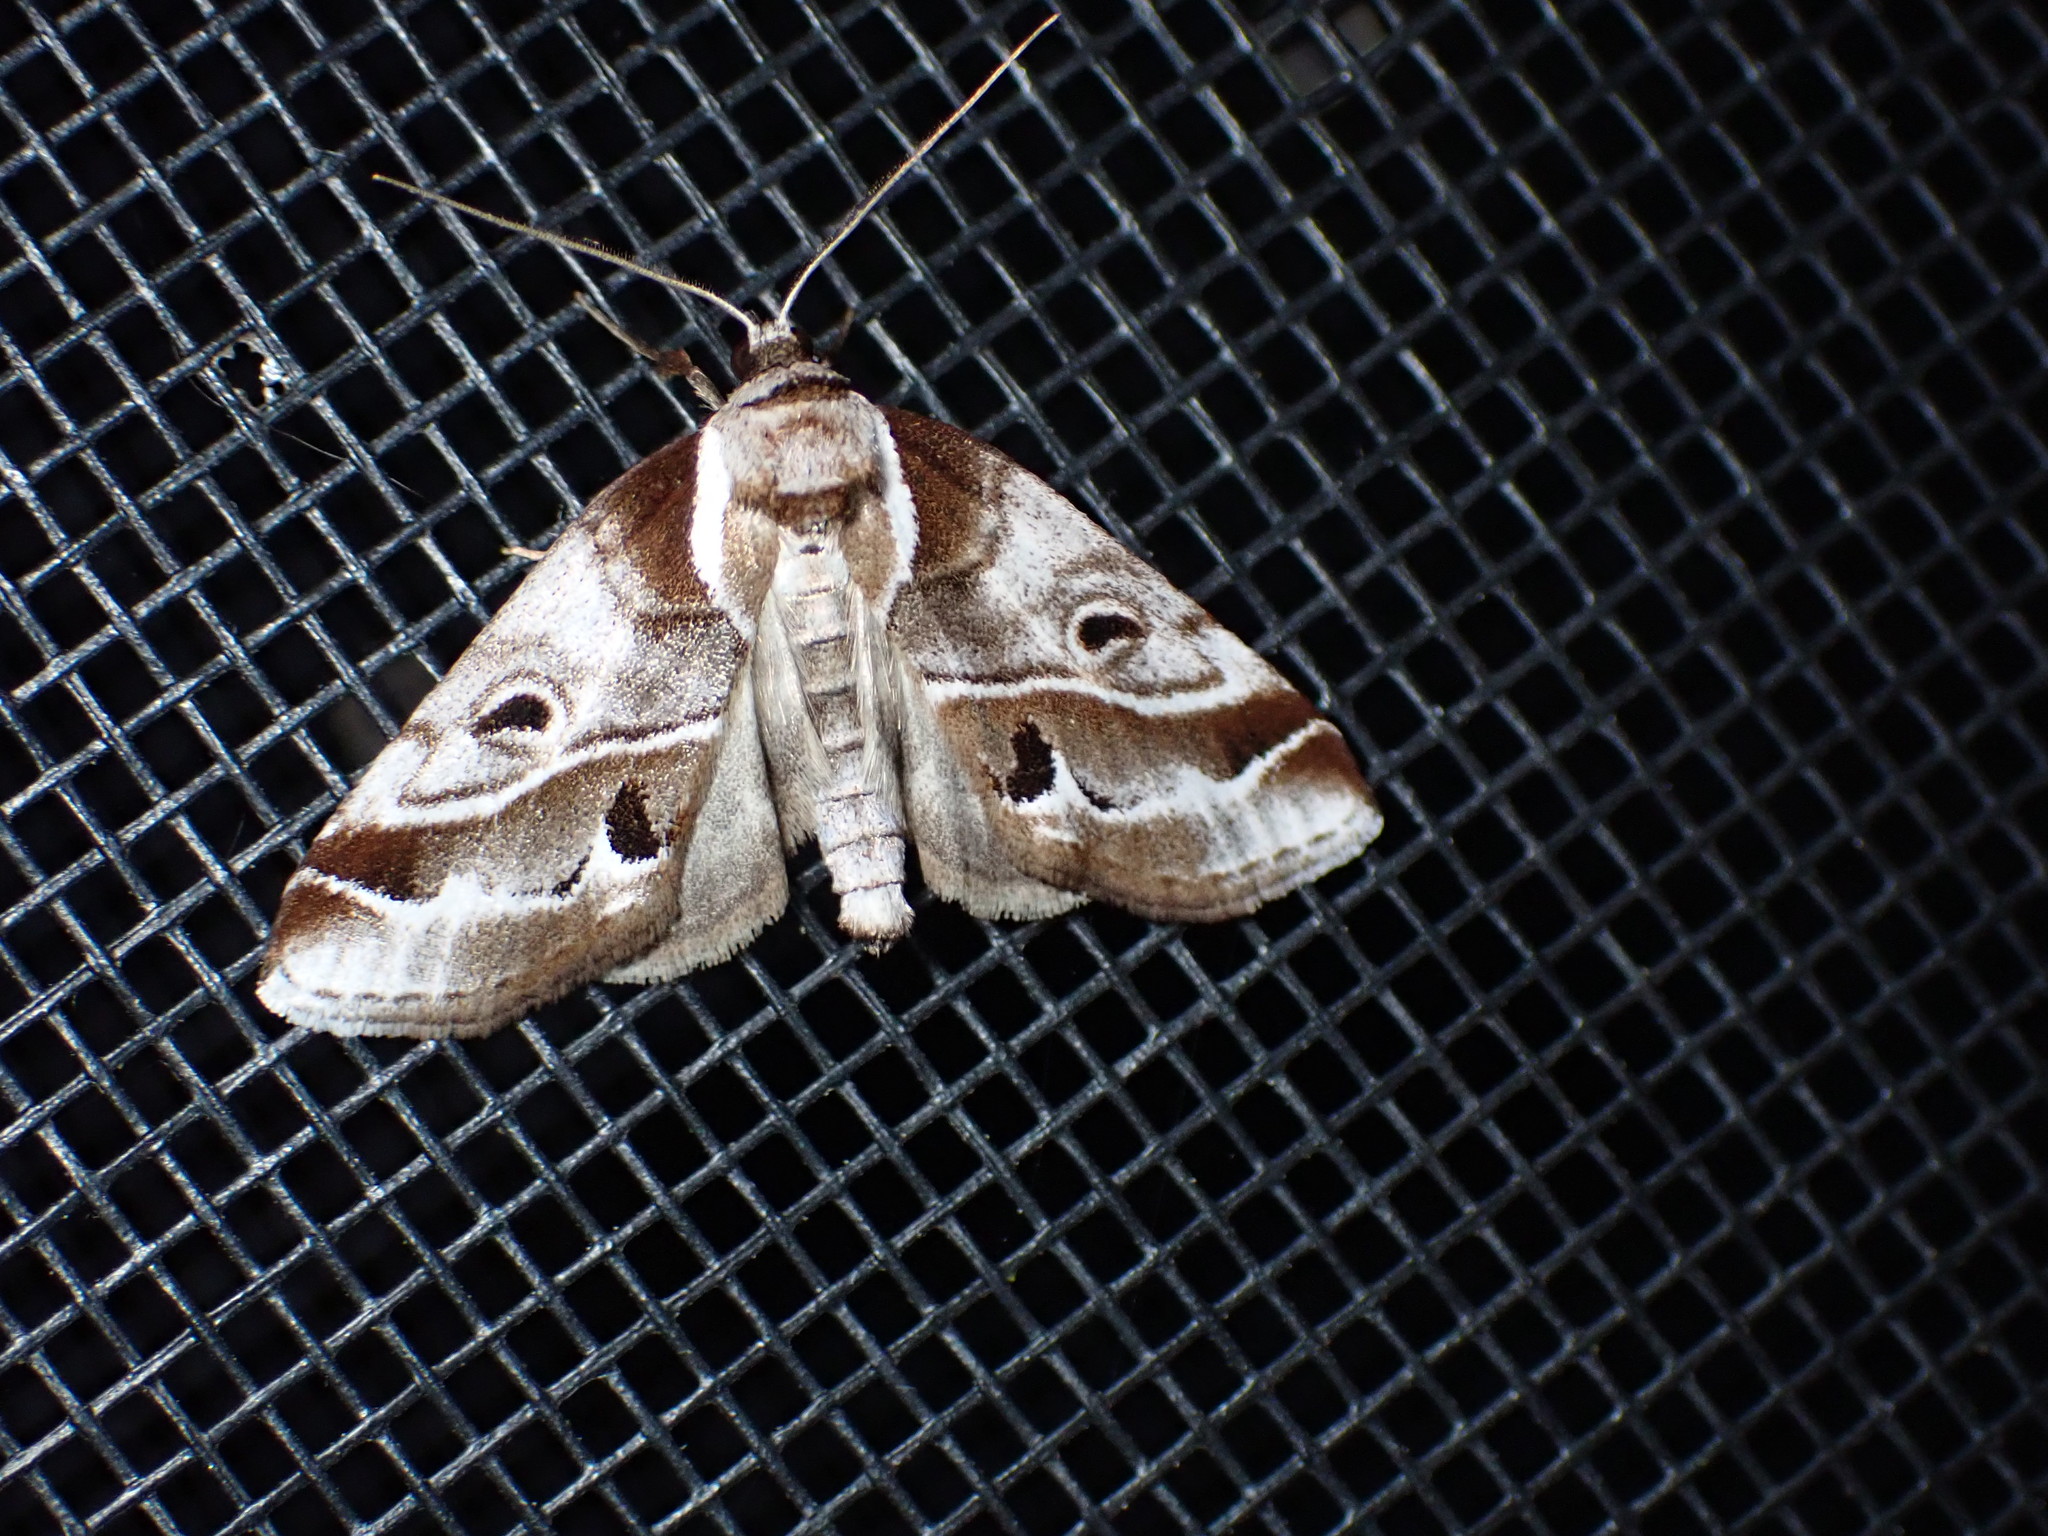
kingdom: Animalia
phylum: Arthropoda
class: Insecta
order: Lepidoptera
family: Nolidae
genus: Baileya
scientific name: Baileya doubledayi
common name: Doubleday's baileya moth
